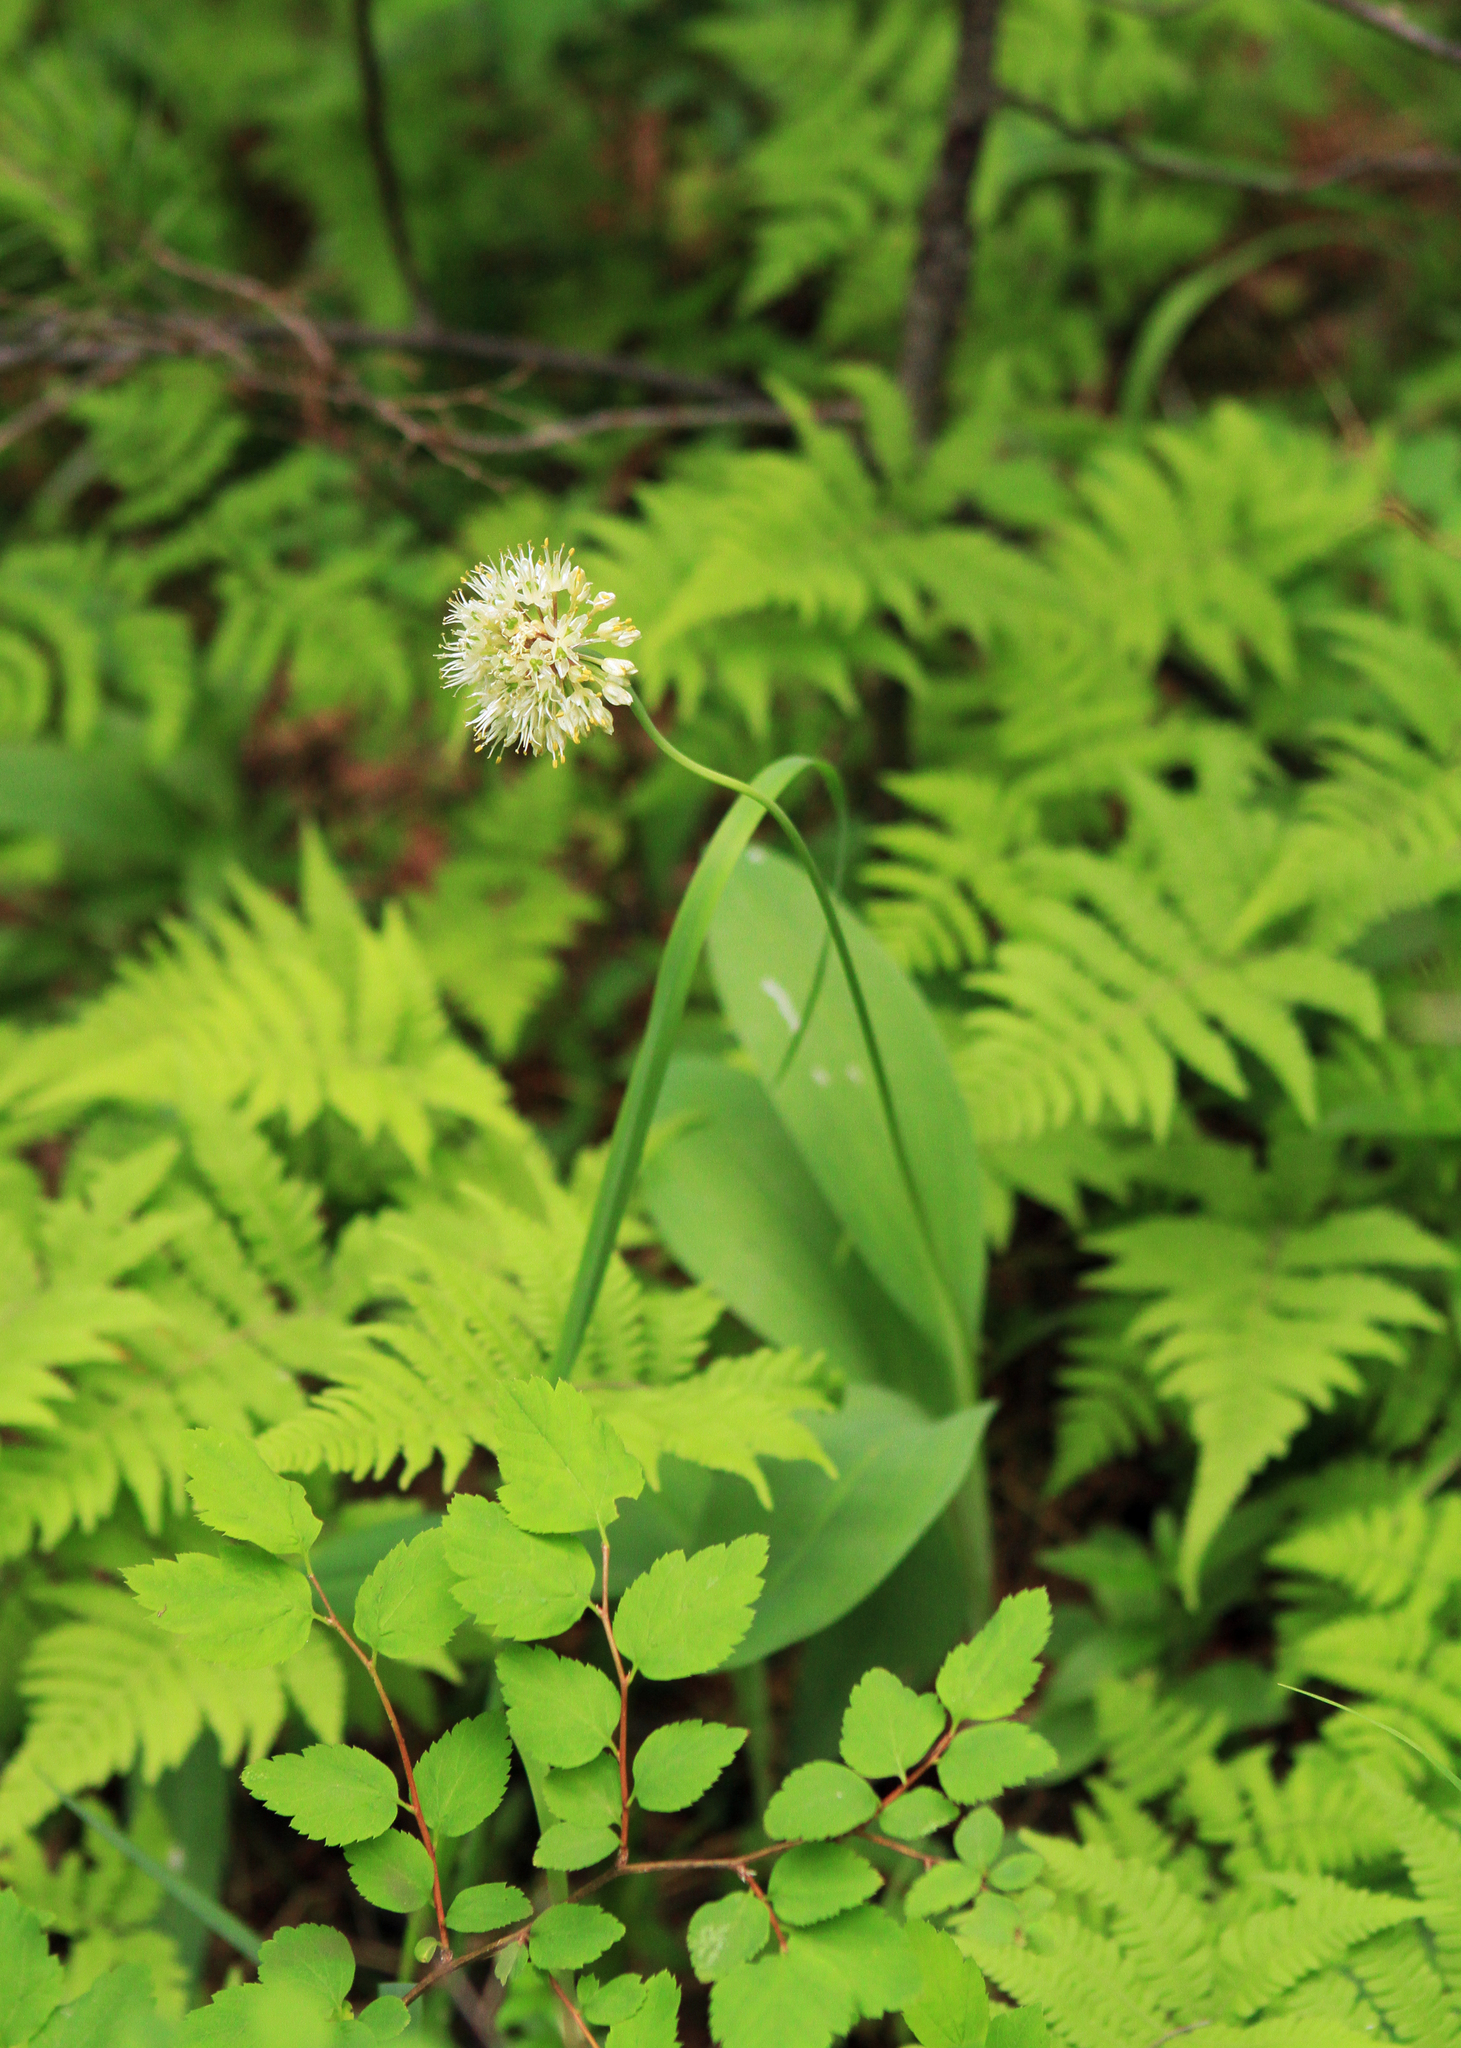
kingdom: Plantae
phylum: Tracheophyta
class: Liliopsida
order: Asparagales
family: Amaryllidaceae
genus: Allium
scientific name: Allium microdictyon
